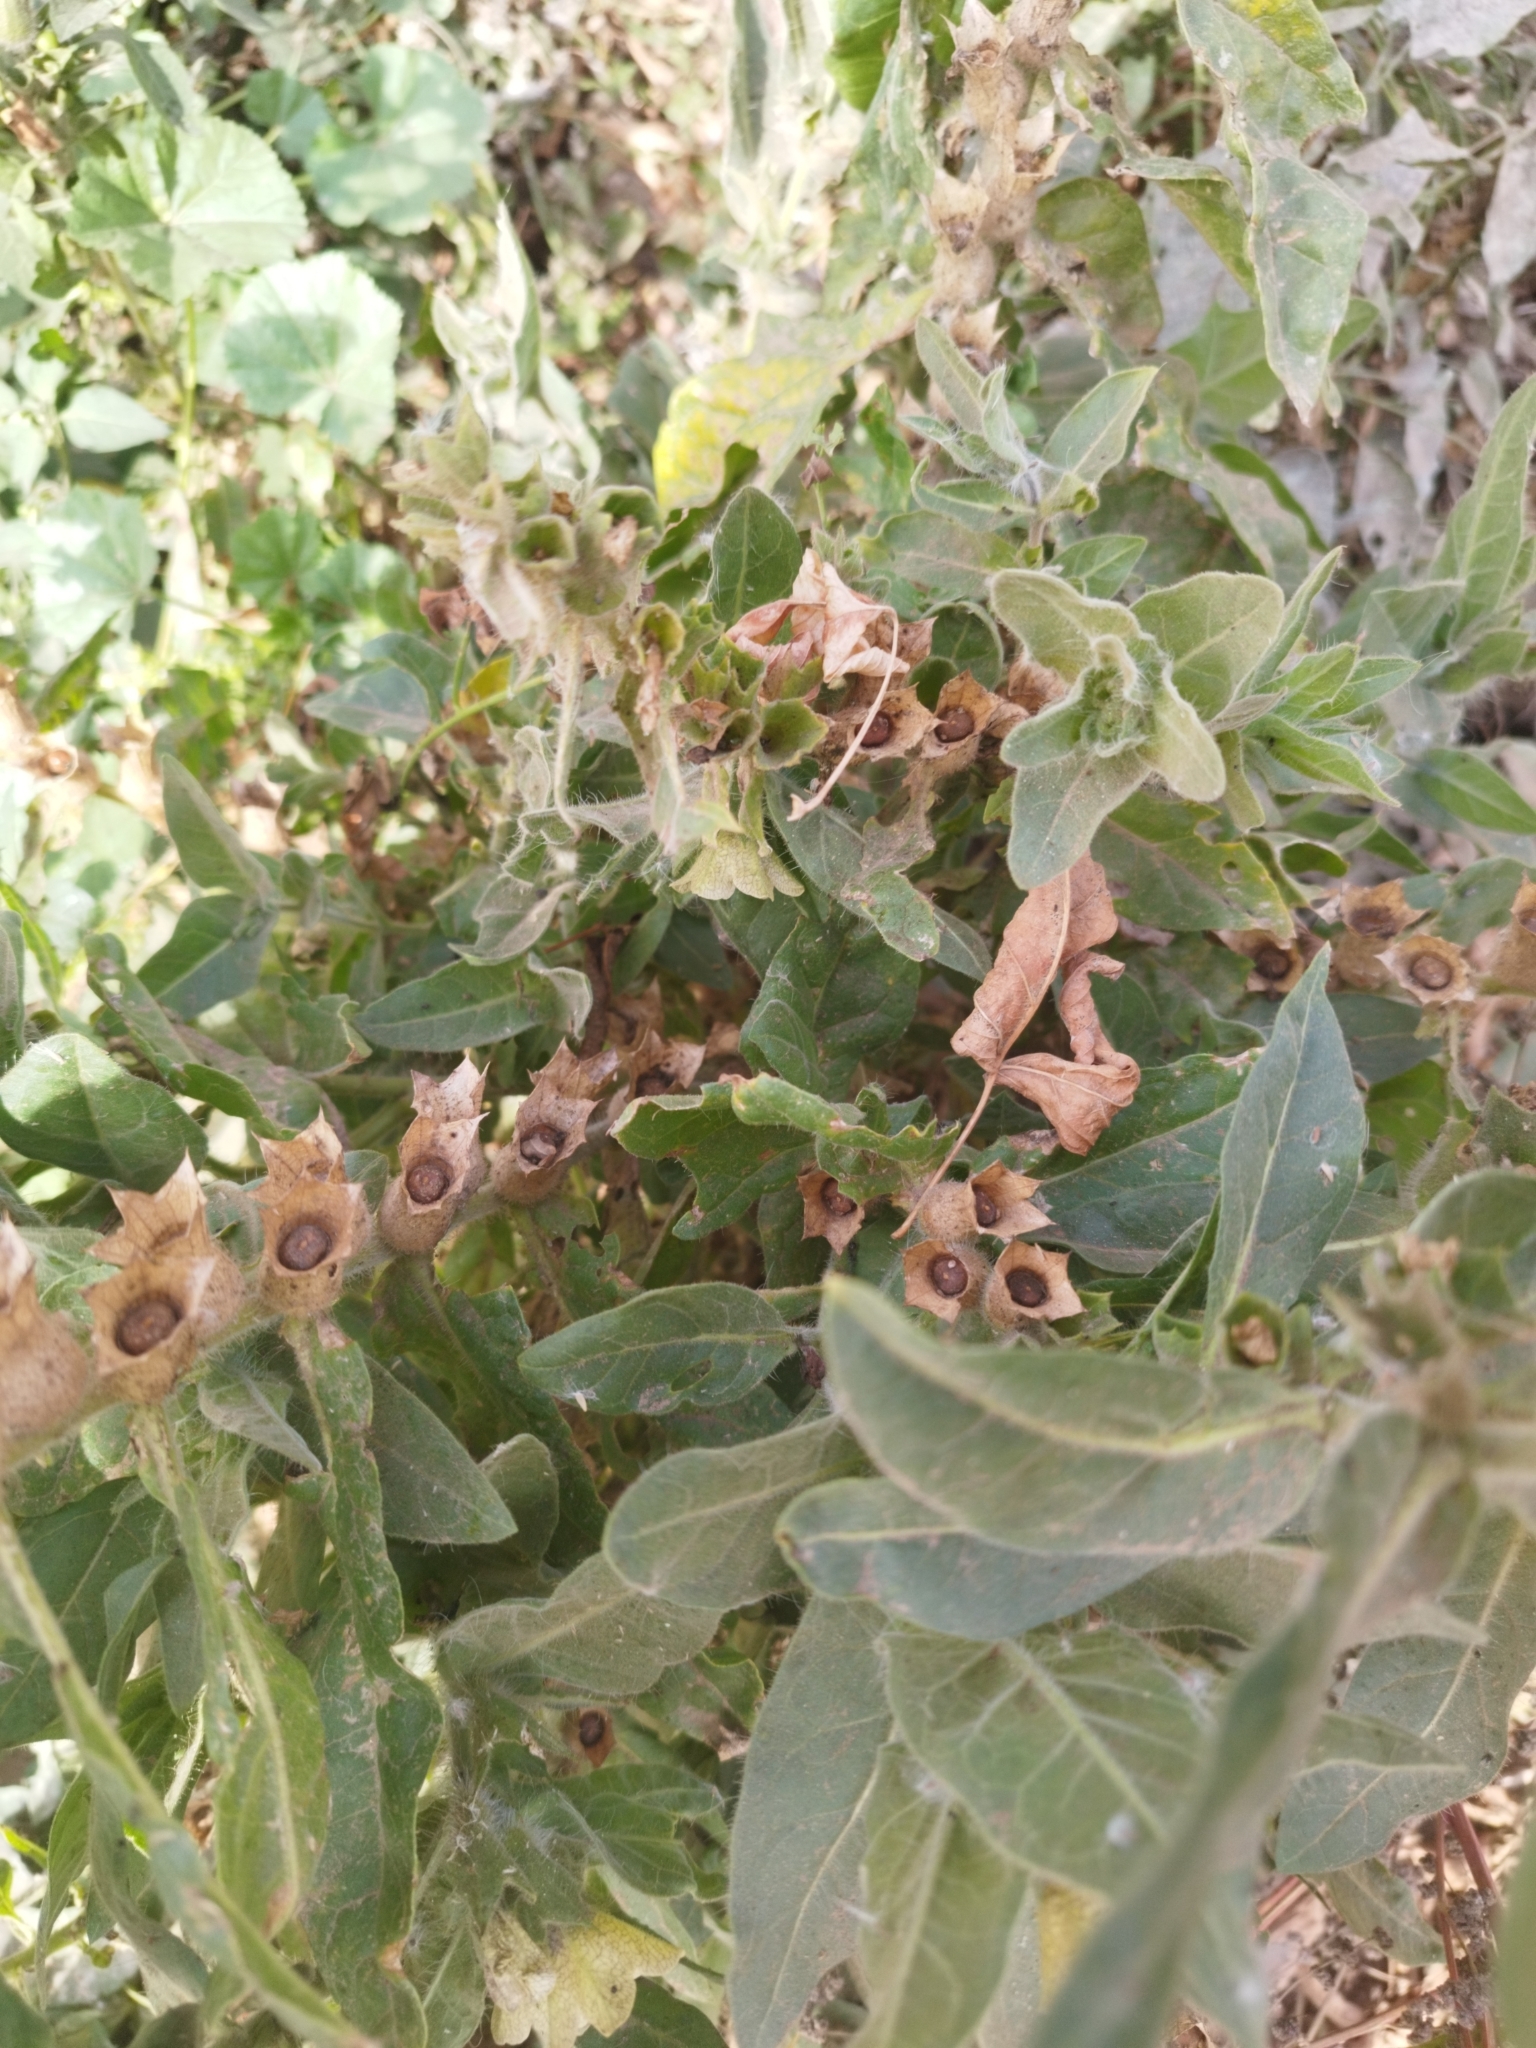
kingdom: Plantae
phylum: Tracheophyta
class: Magnoliopsida
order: Solanales
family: Solanaceae
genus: Hyoscyamus
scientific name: Hyoscyamus niger
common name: Henbane
